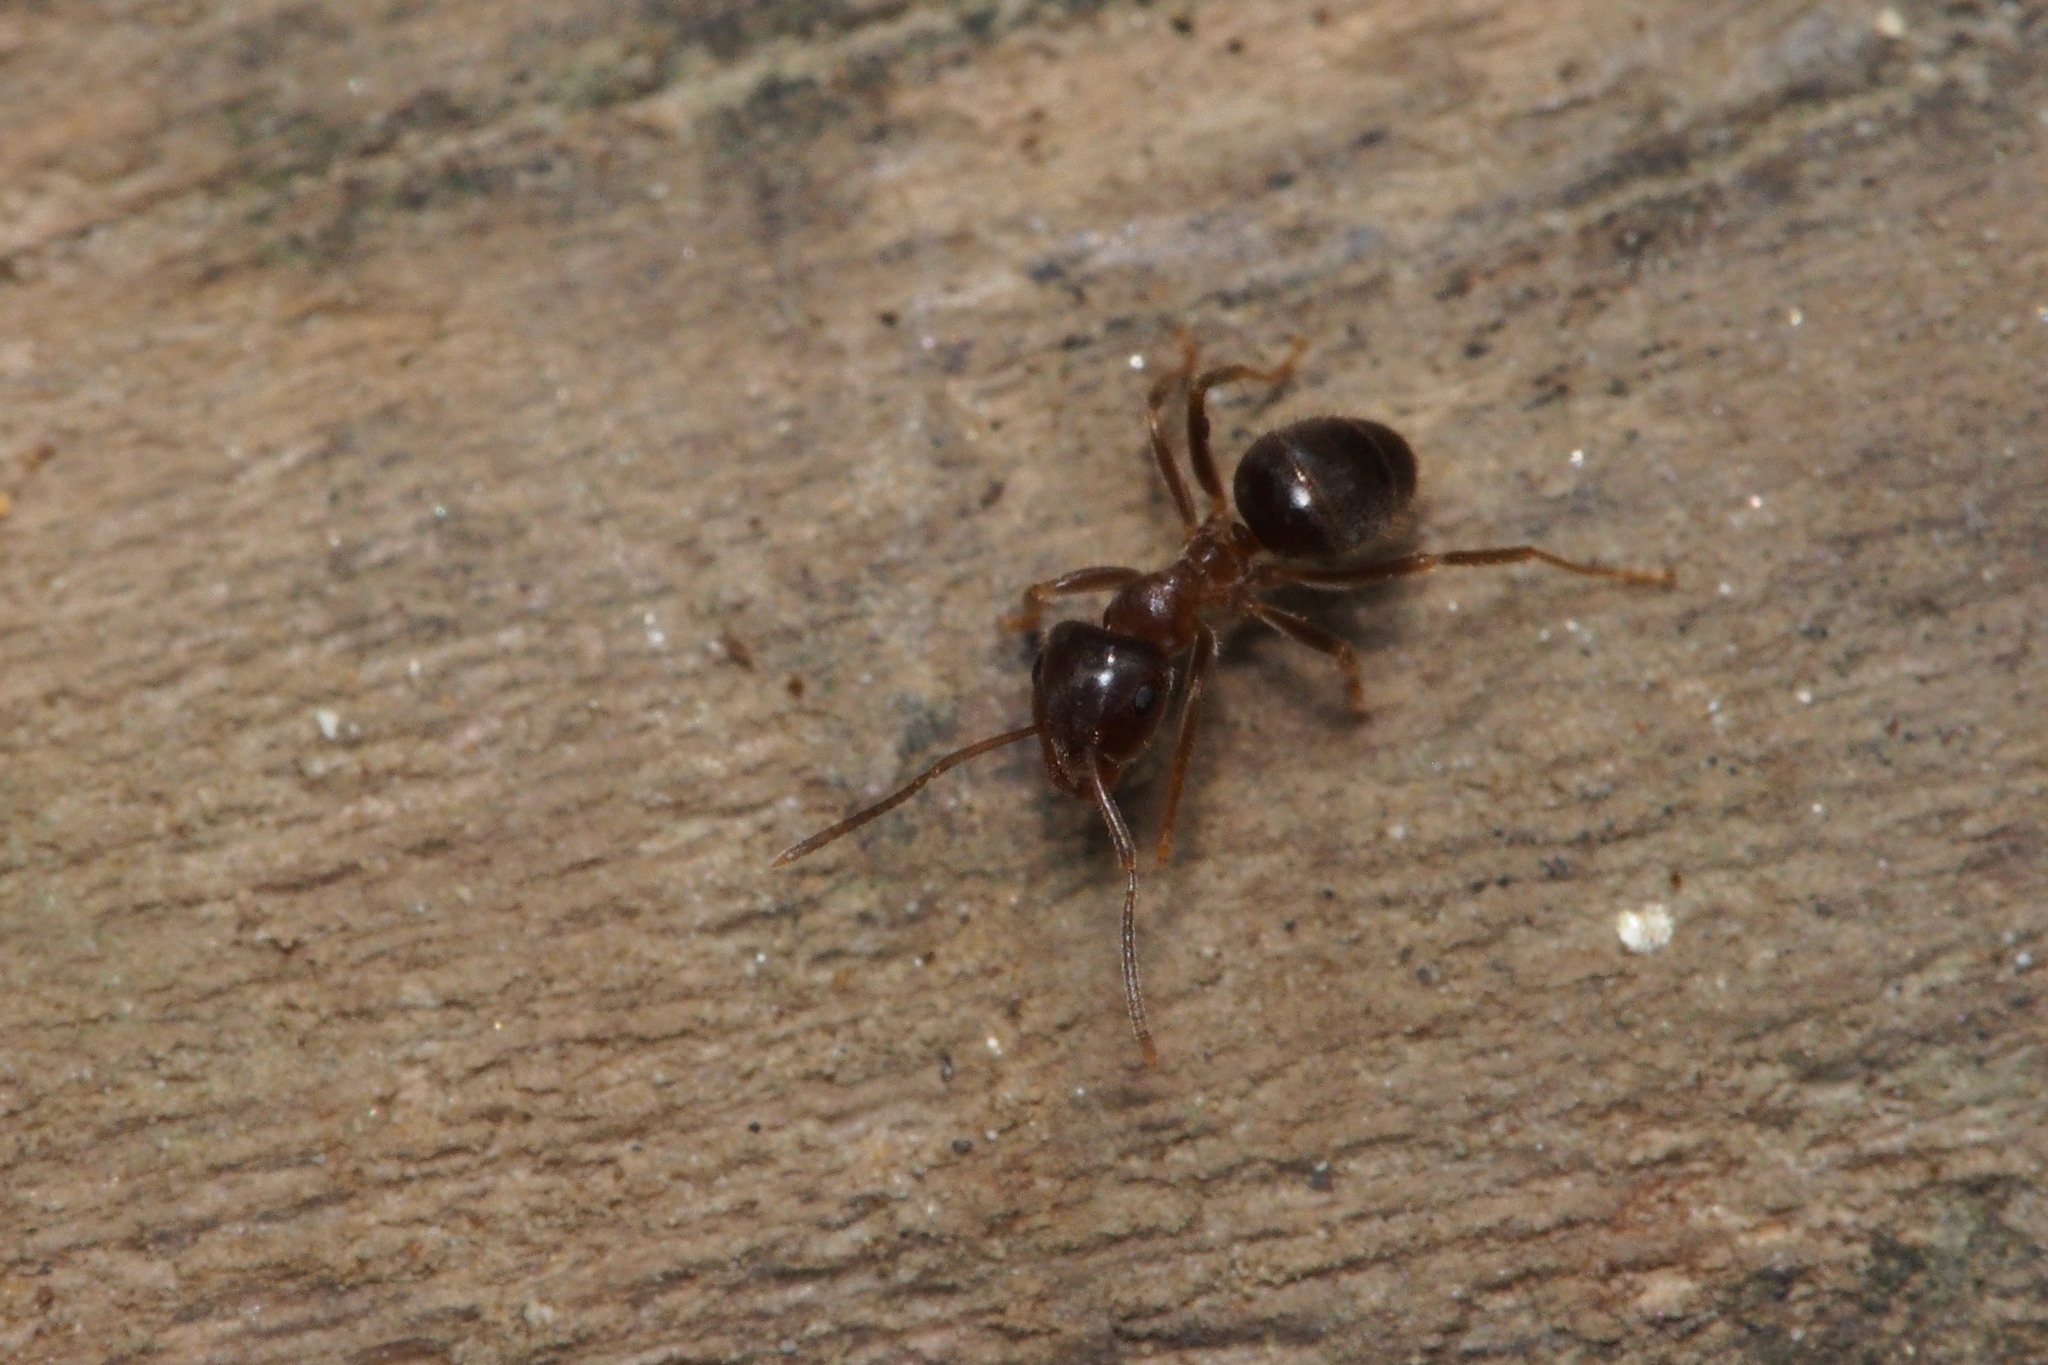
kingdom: Animalia
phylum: Arthropoda
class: Insecta
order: Hymenoptera
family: Formicidae
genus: Lasius
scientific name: Lasius hayashi
